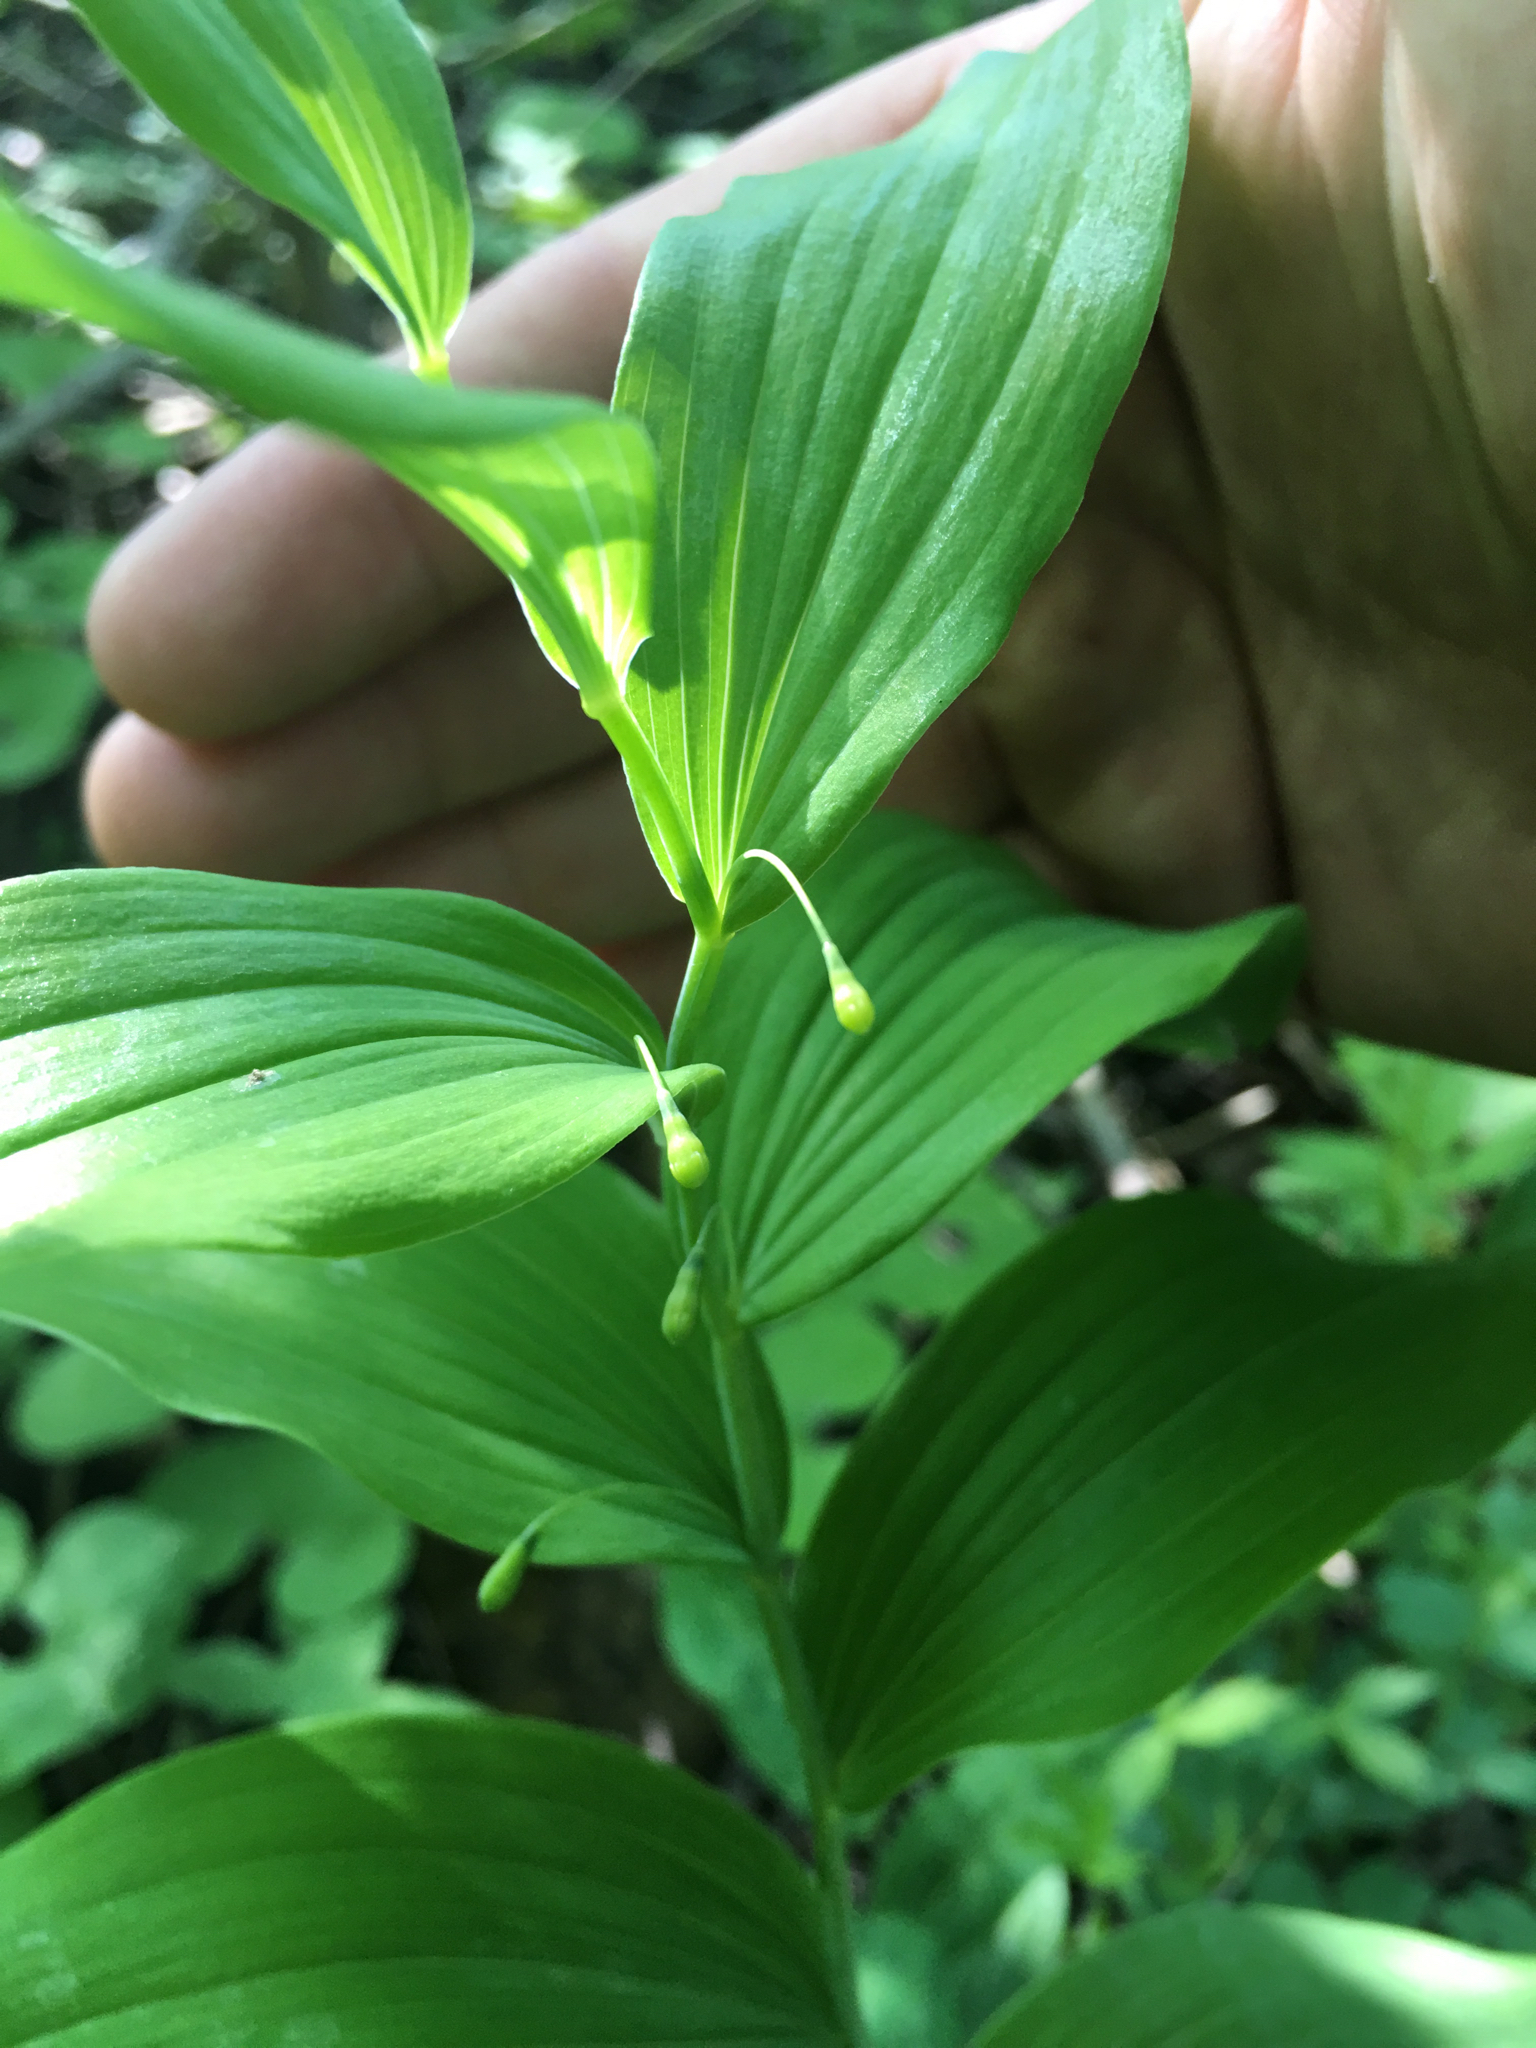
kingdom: Plantae
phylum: Tracheophyta
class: Liliopsida
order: Asparagales
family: Asparagaceae
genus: Polygonatum
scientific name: Polygonatum biflorum
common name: American solomon's-seal
